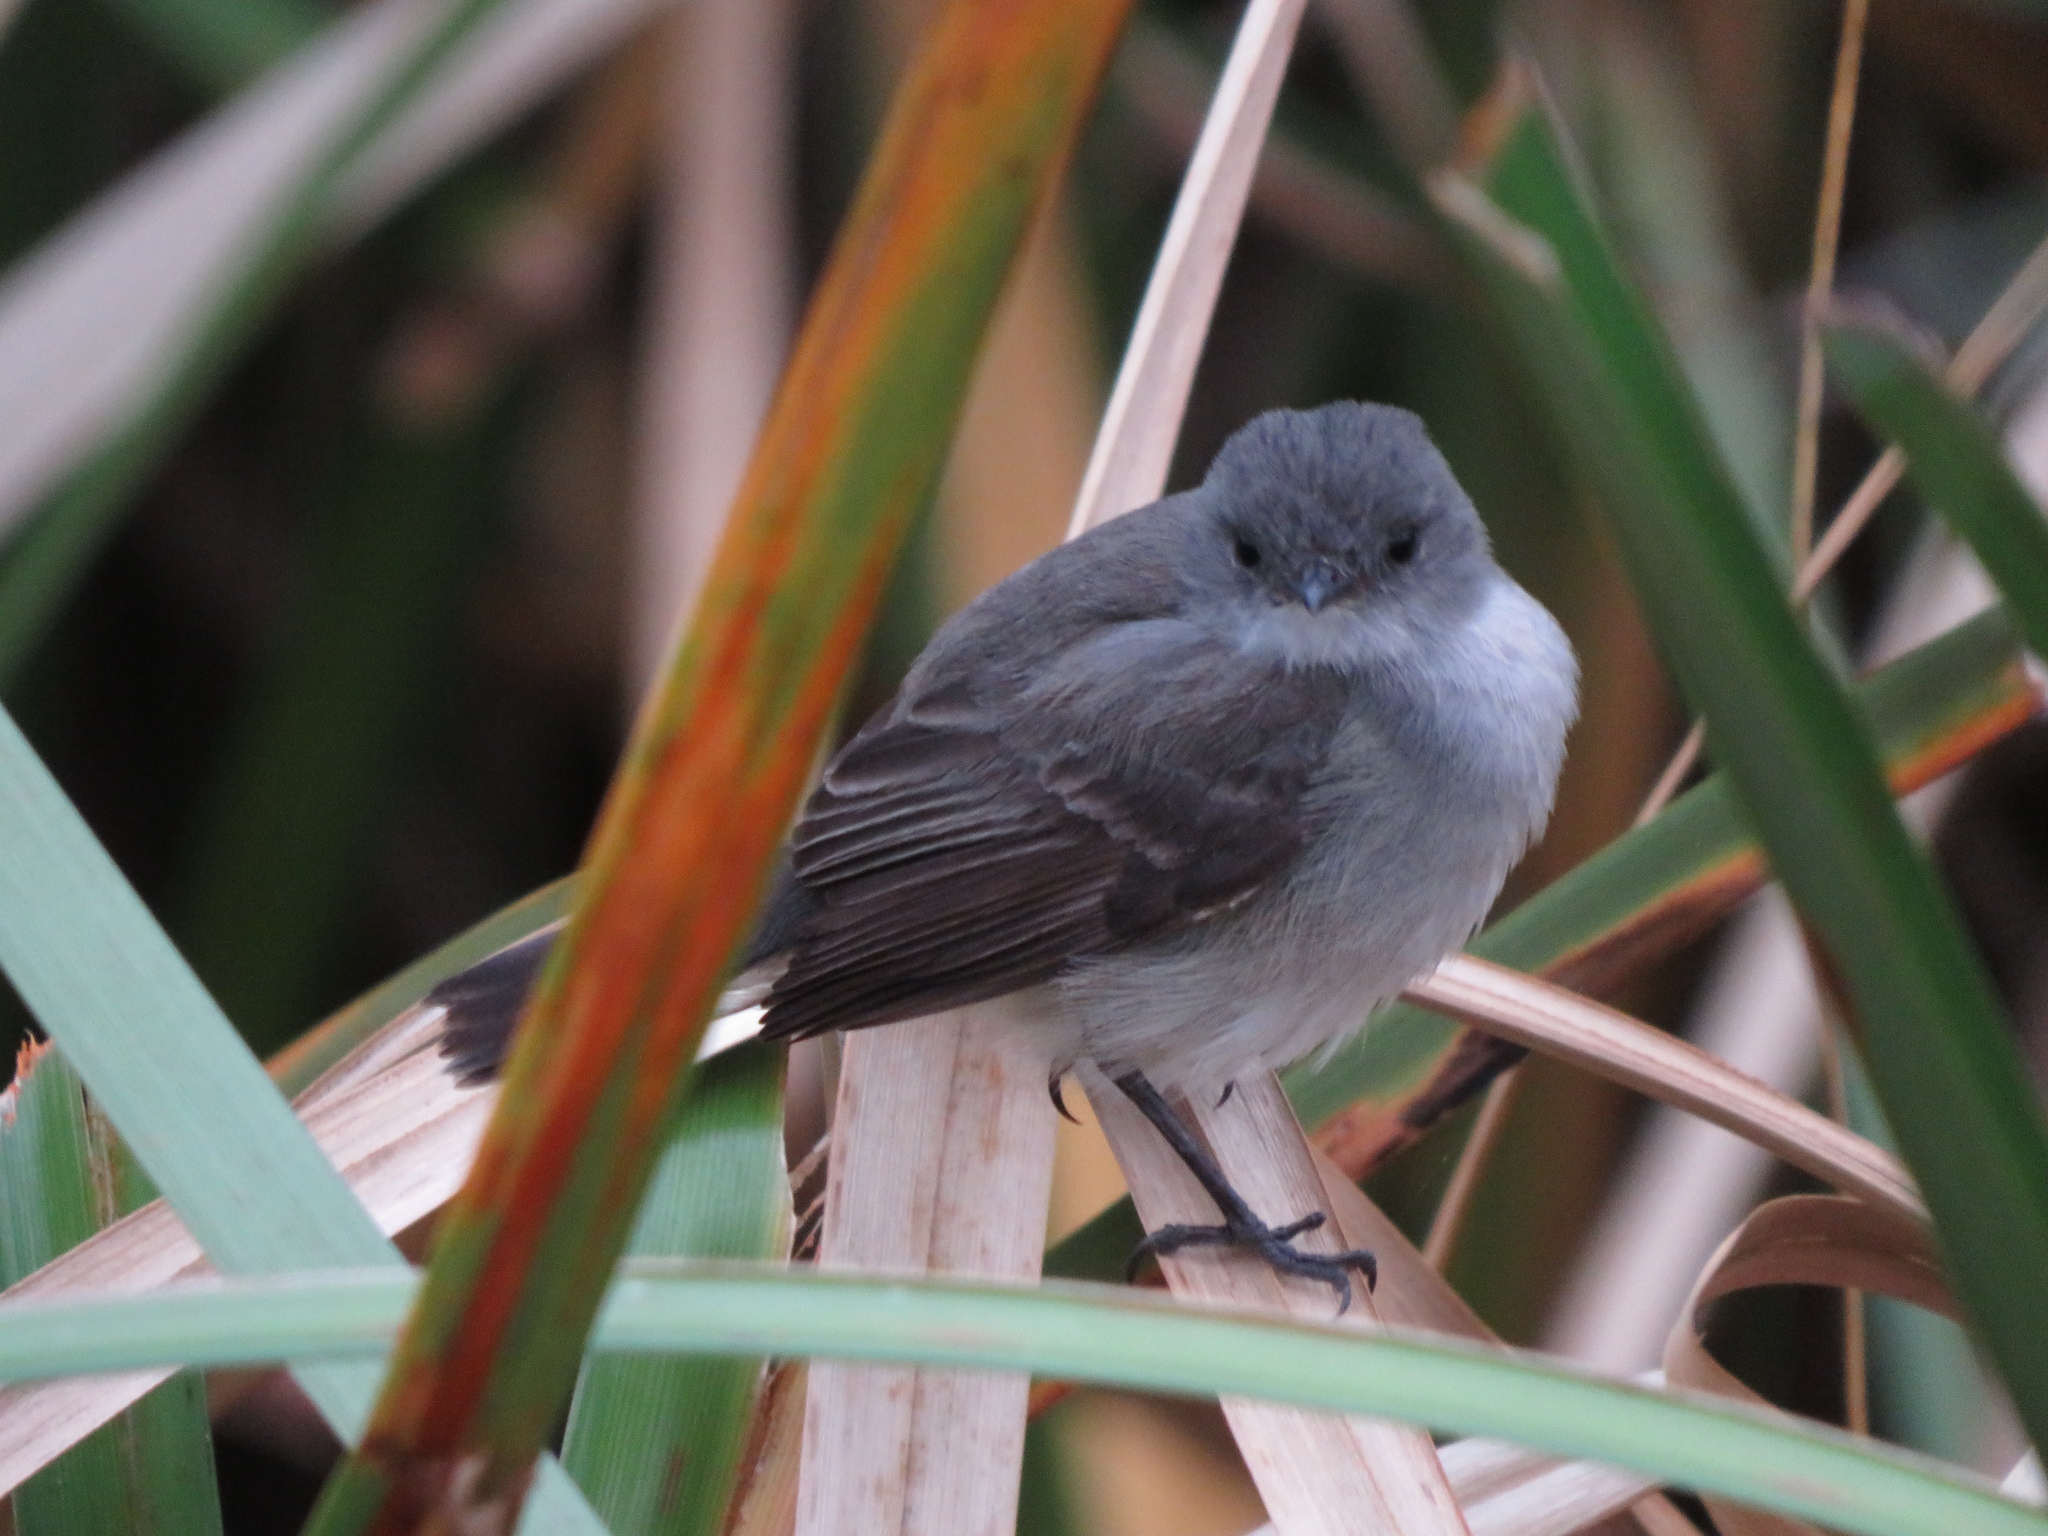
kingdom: Animalia
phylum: Chordata
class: Aves
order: Passeriformes
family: Tyrannidae
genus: Serpophaga
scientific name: Serpophaga nigricans
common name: Sooty tyrannulet
